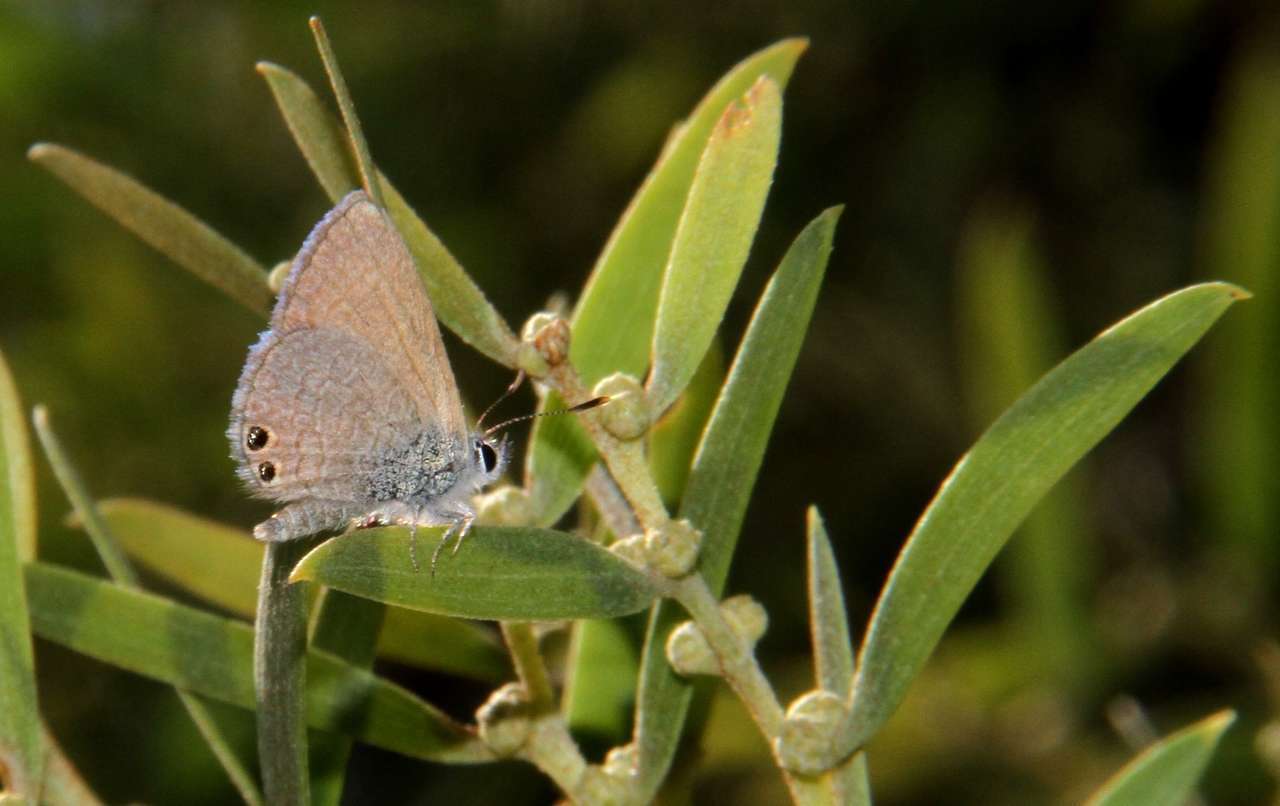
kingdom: Animalia
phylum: Arthropoda
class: Insecta
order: Lepidoptera
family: Lycaenidae
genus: Nacaduba
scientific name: Nacaduba biocellata
